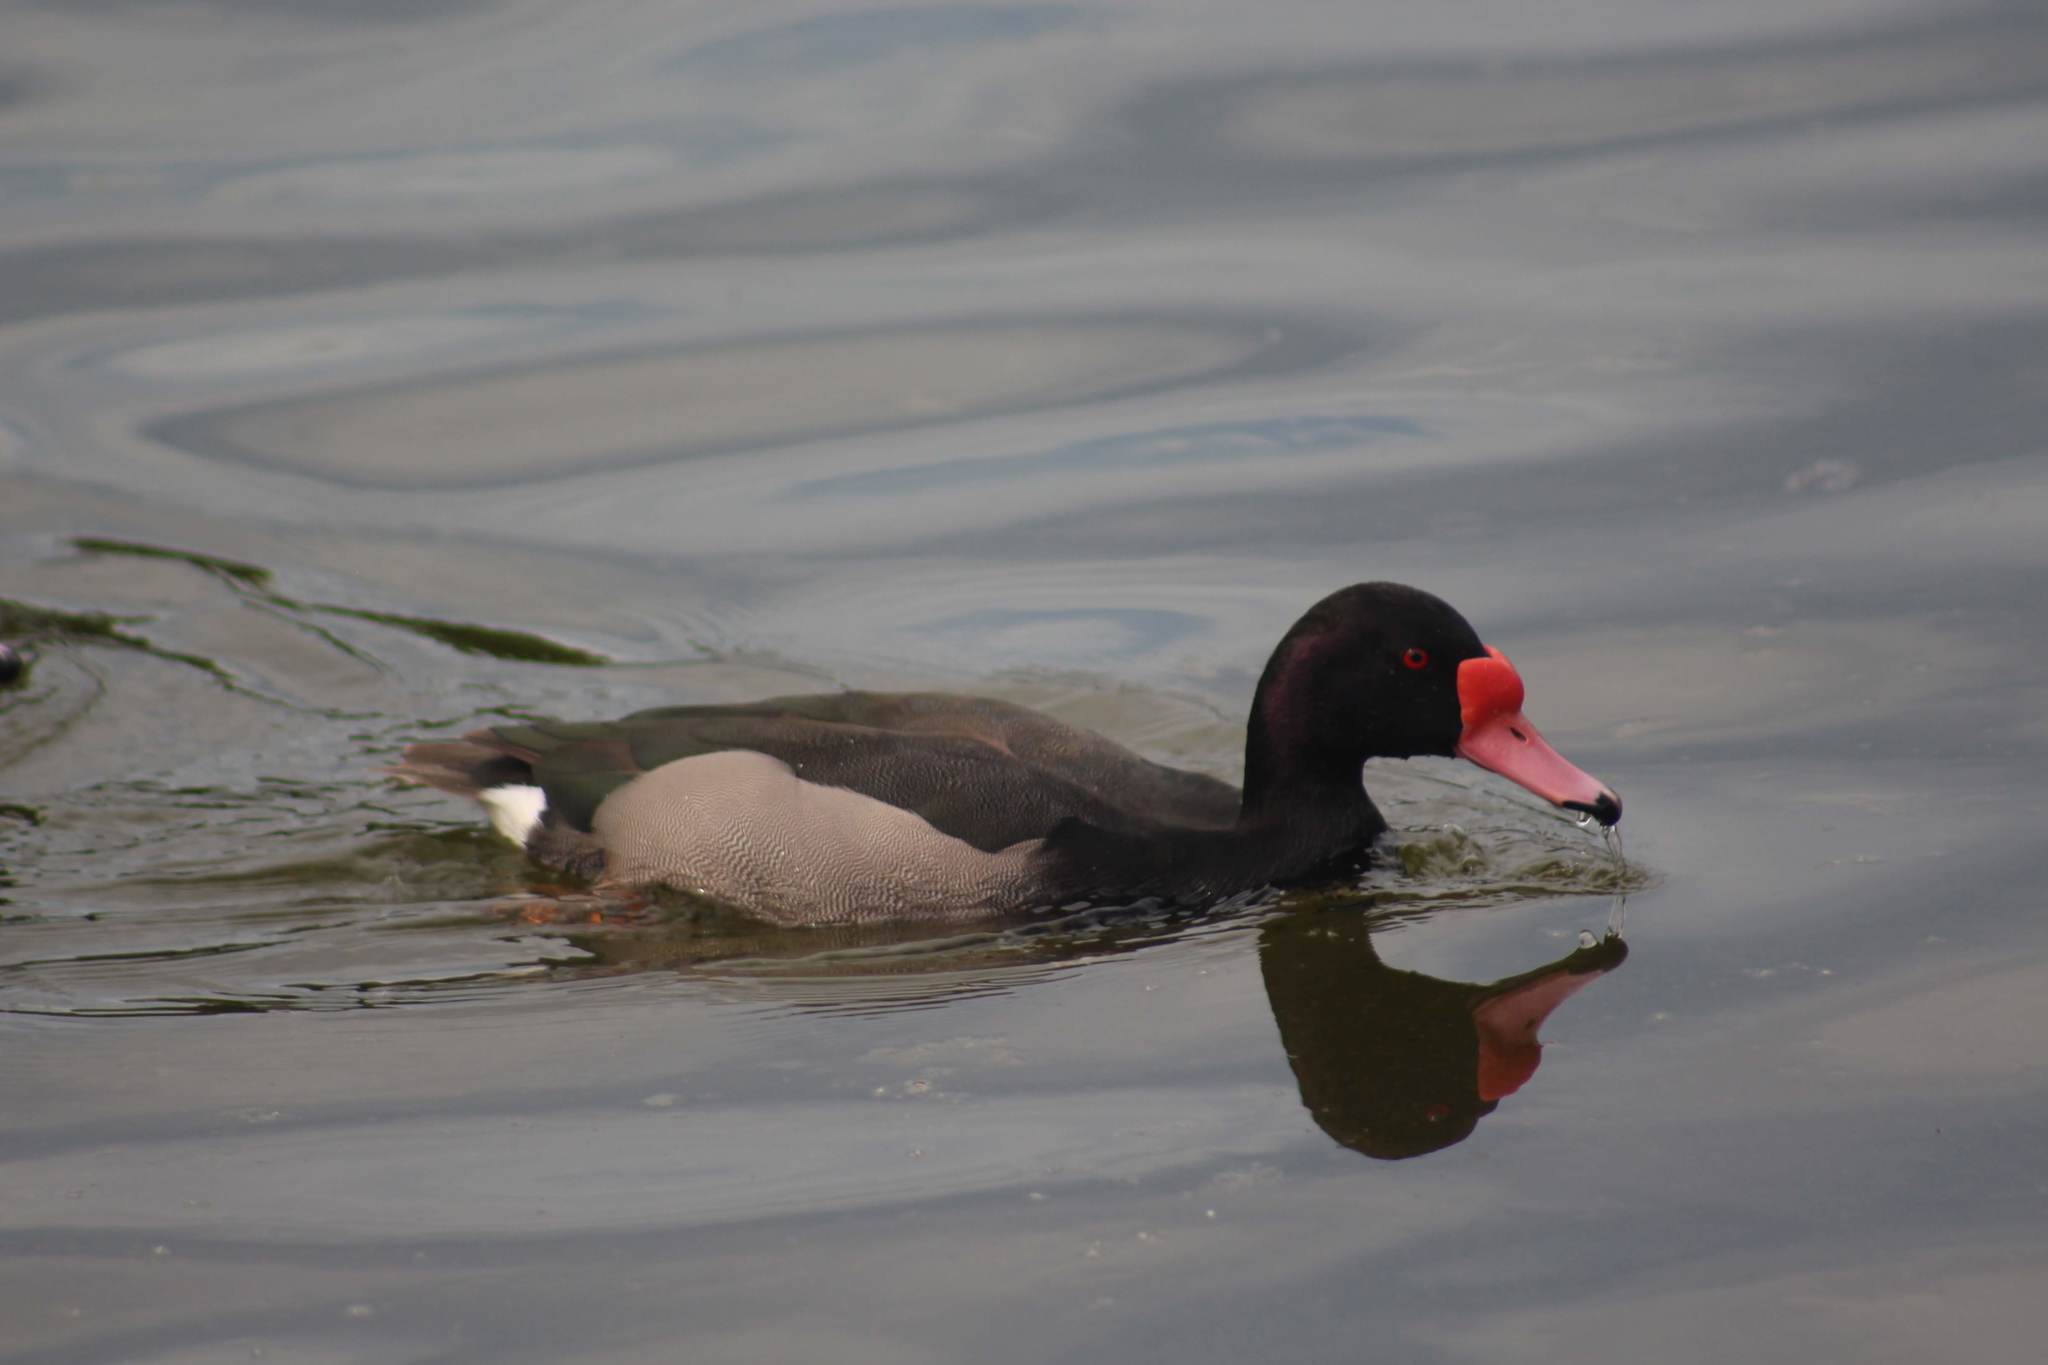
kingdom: Animalia
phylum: Chordata
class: Aves
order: Anseriformes
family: Anatidae
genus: Netta
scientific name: Netta peposaca
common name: Rosy-billed pochard
